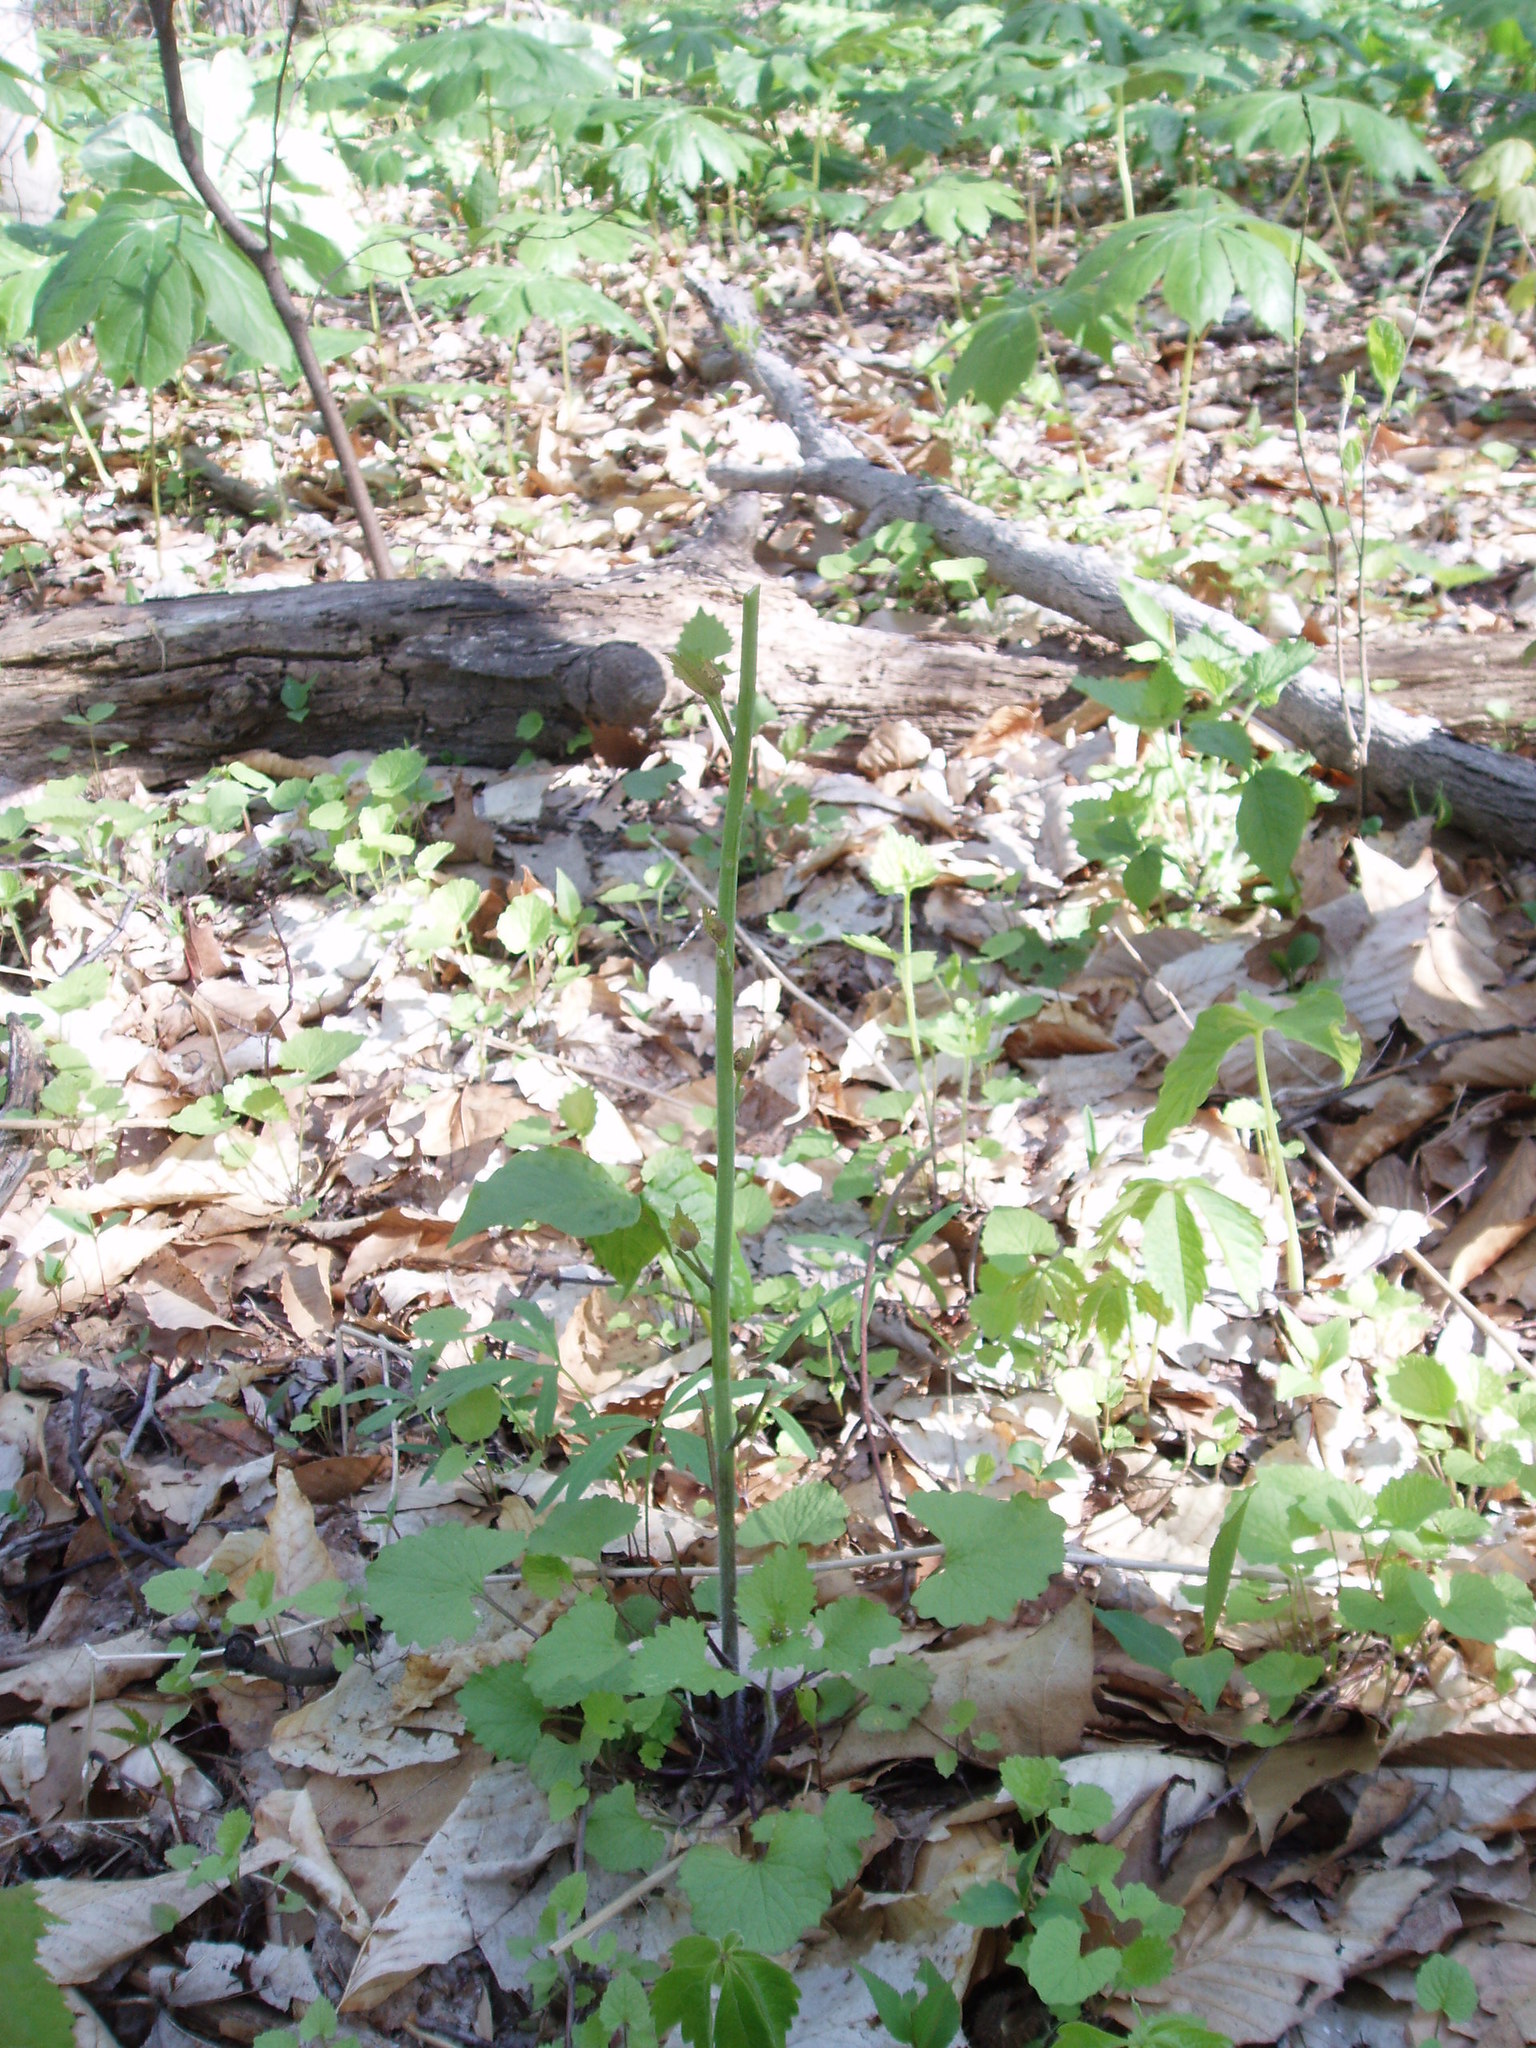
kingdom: Plantae
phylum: Tracheophyta
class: Magnoliopsida
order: Brassicales
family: Brassicaceae
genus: Alliaria
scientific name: Alliaria petiolata
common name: Garlic mustard
